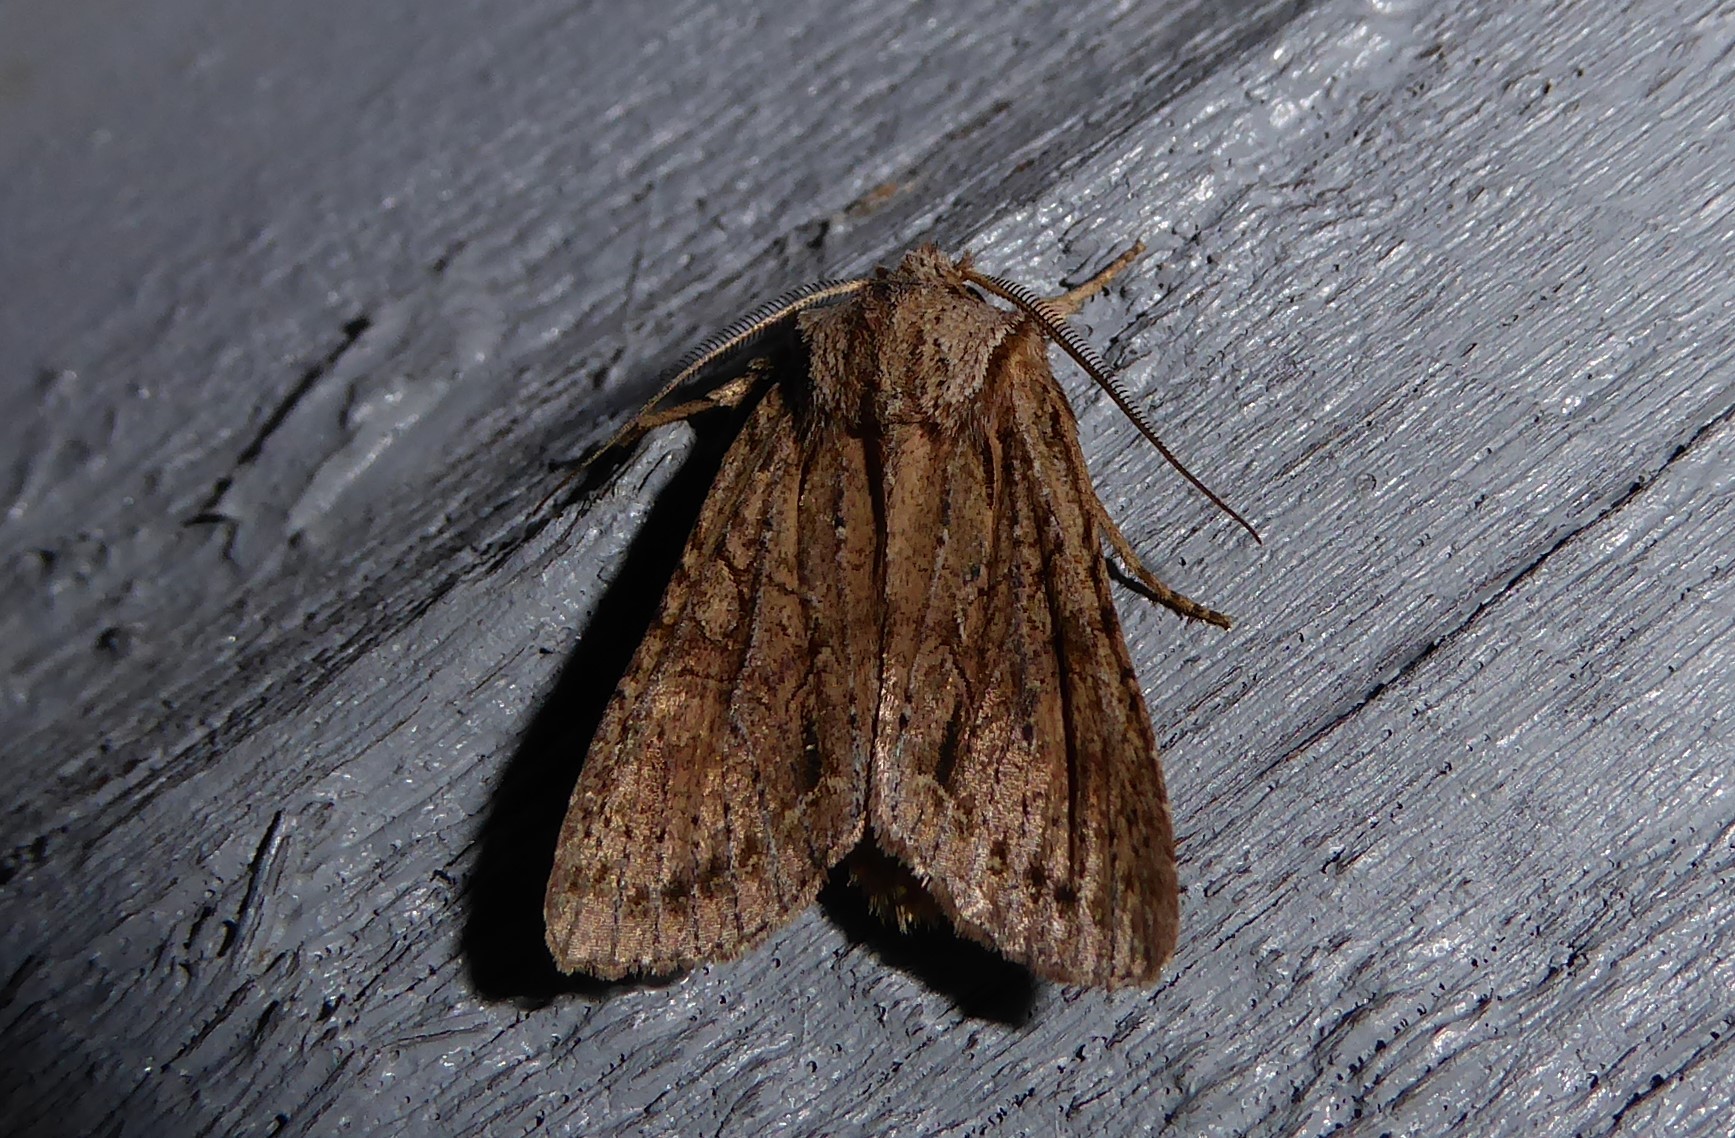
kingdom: Animalia
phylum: Arthropoda
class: Insecta
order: Lepidoptera
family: Noctuidae
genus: Ichneutica
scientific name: Ichneutica
